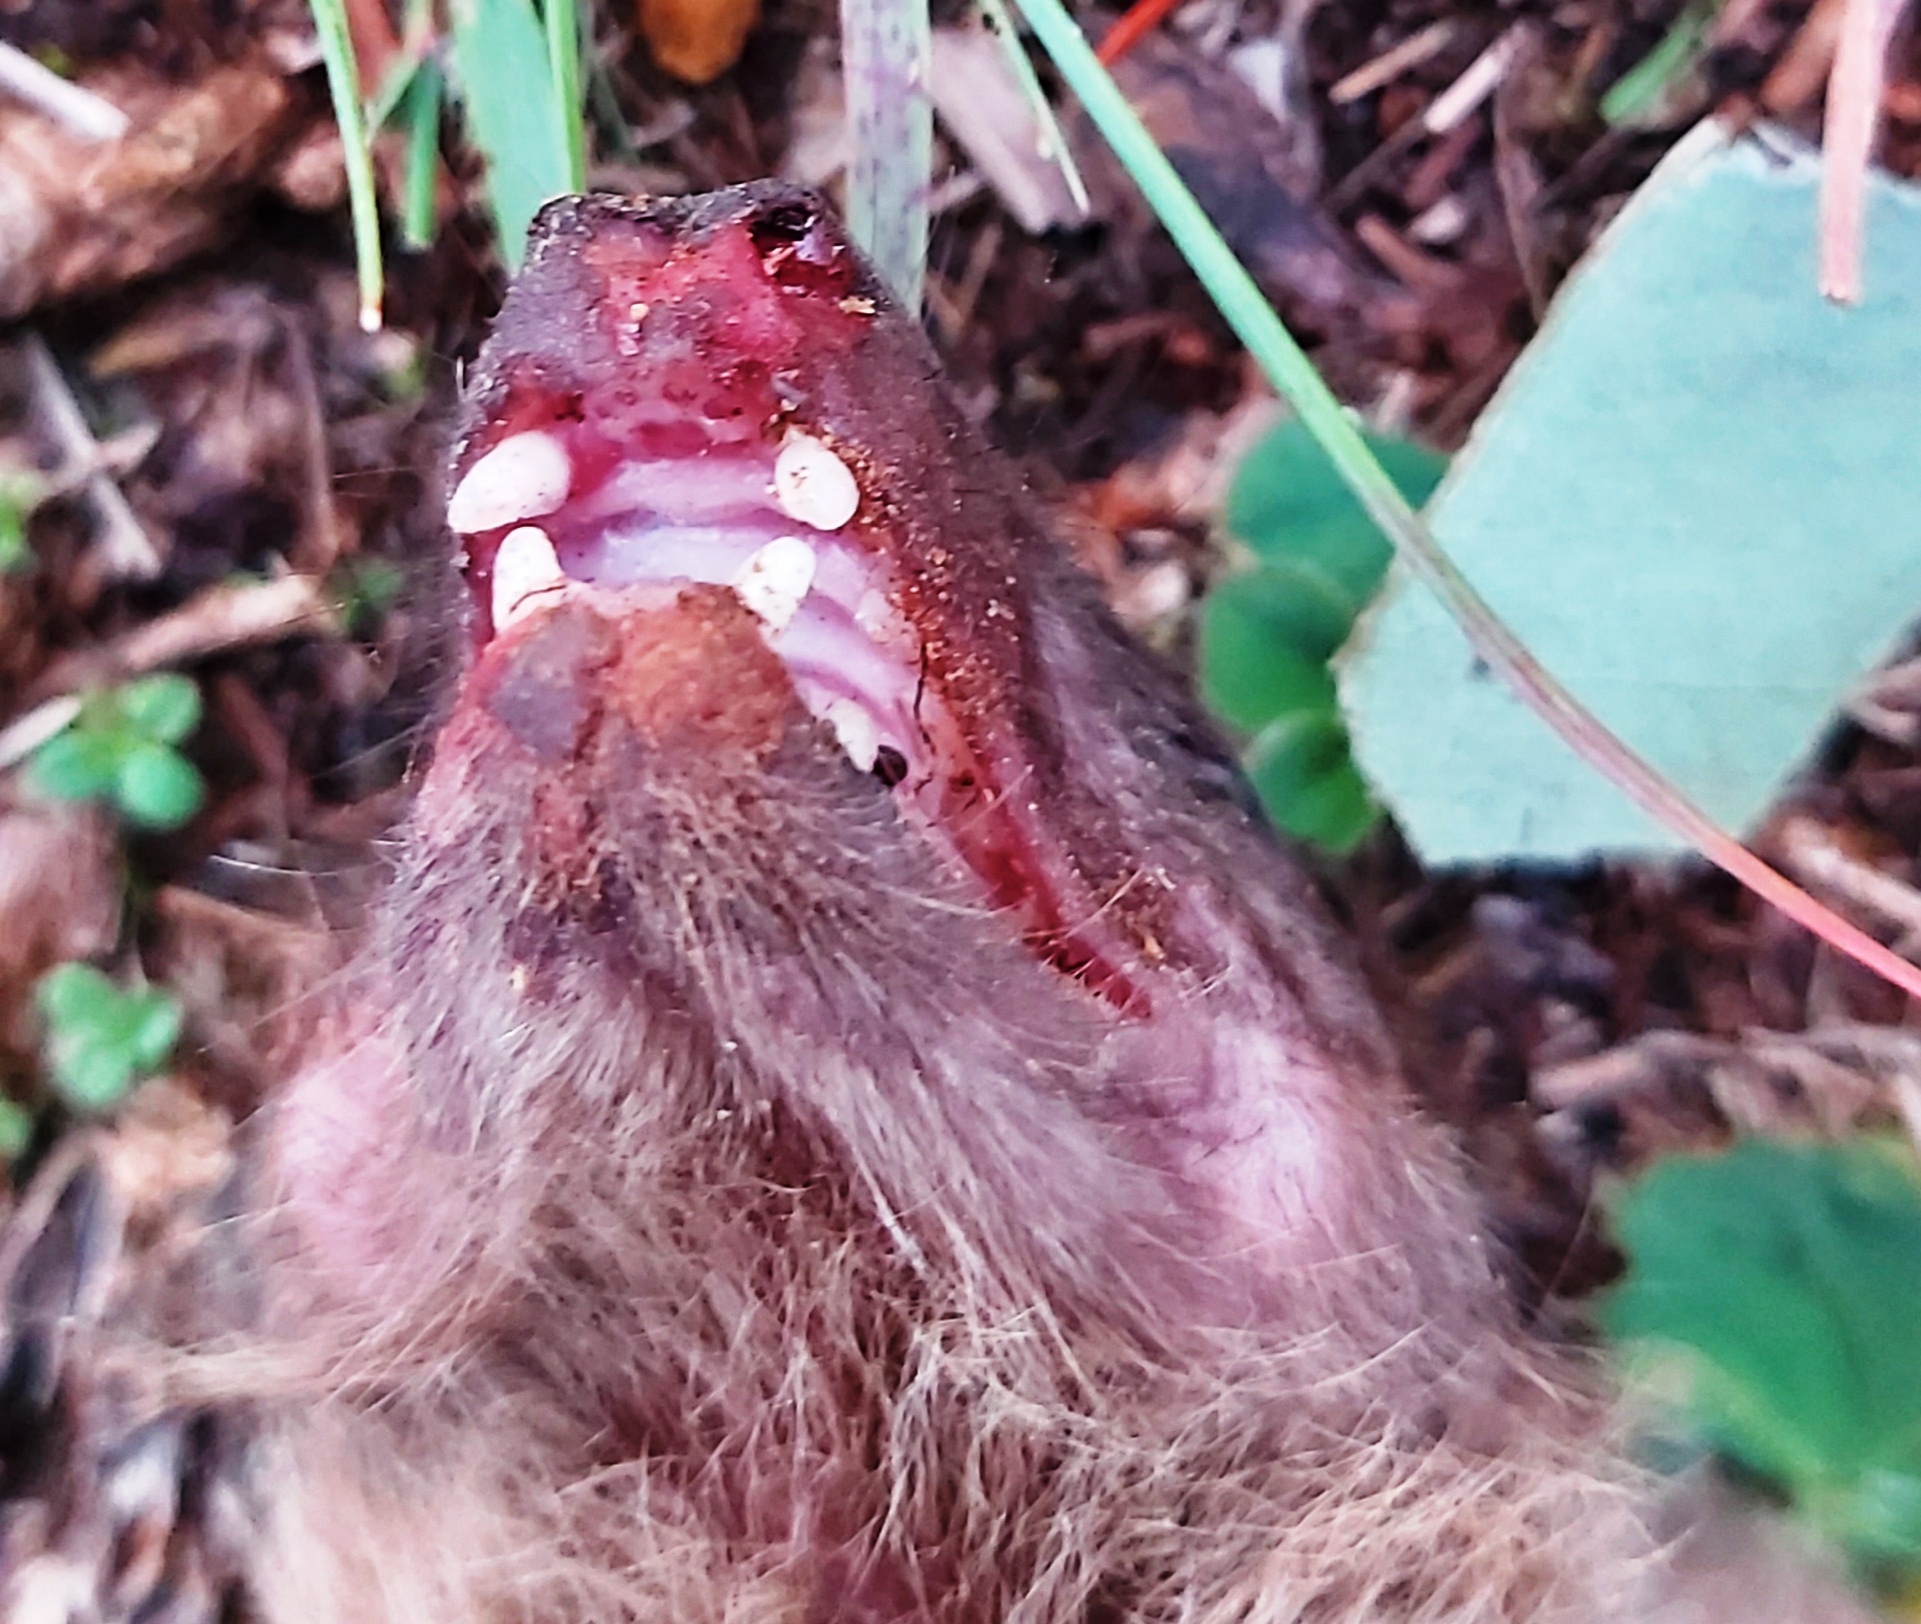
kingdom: Animalia
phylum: Chordata
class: Mammalia
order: Chiroptera
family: Pteropodidae
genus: Rousettus
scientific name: Rousettus aegyptiacus
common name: Egyptian rousette
